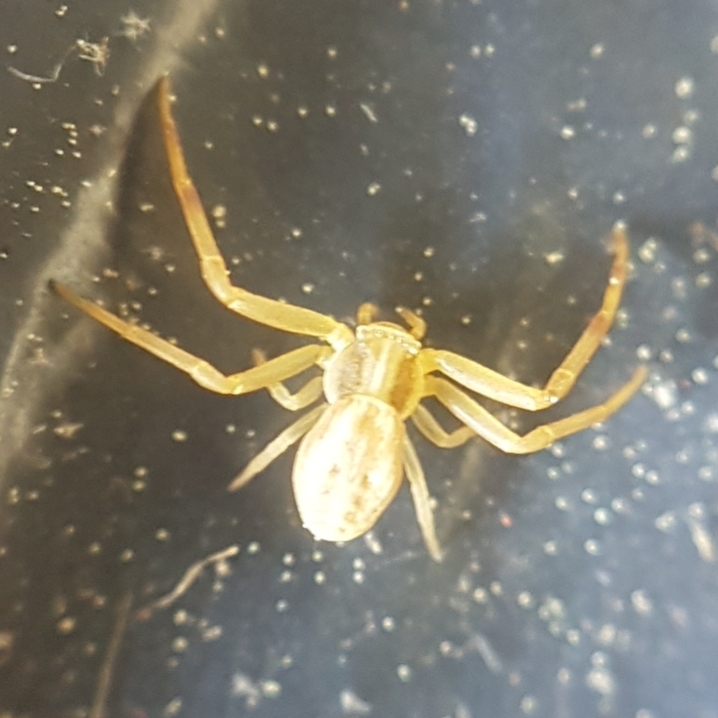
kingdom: Animalia
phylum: Arthropoda
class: Arachnida
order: Araneae
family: Thomisidae
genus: Runcinia
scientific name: Runcinia grammica
